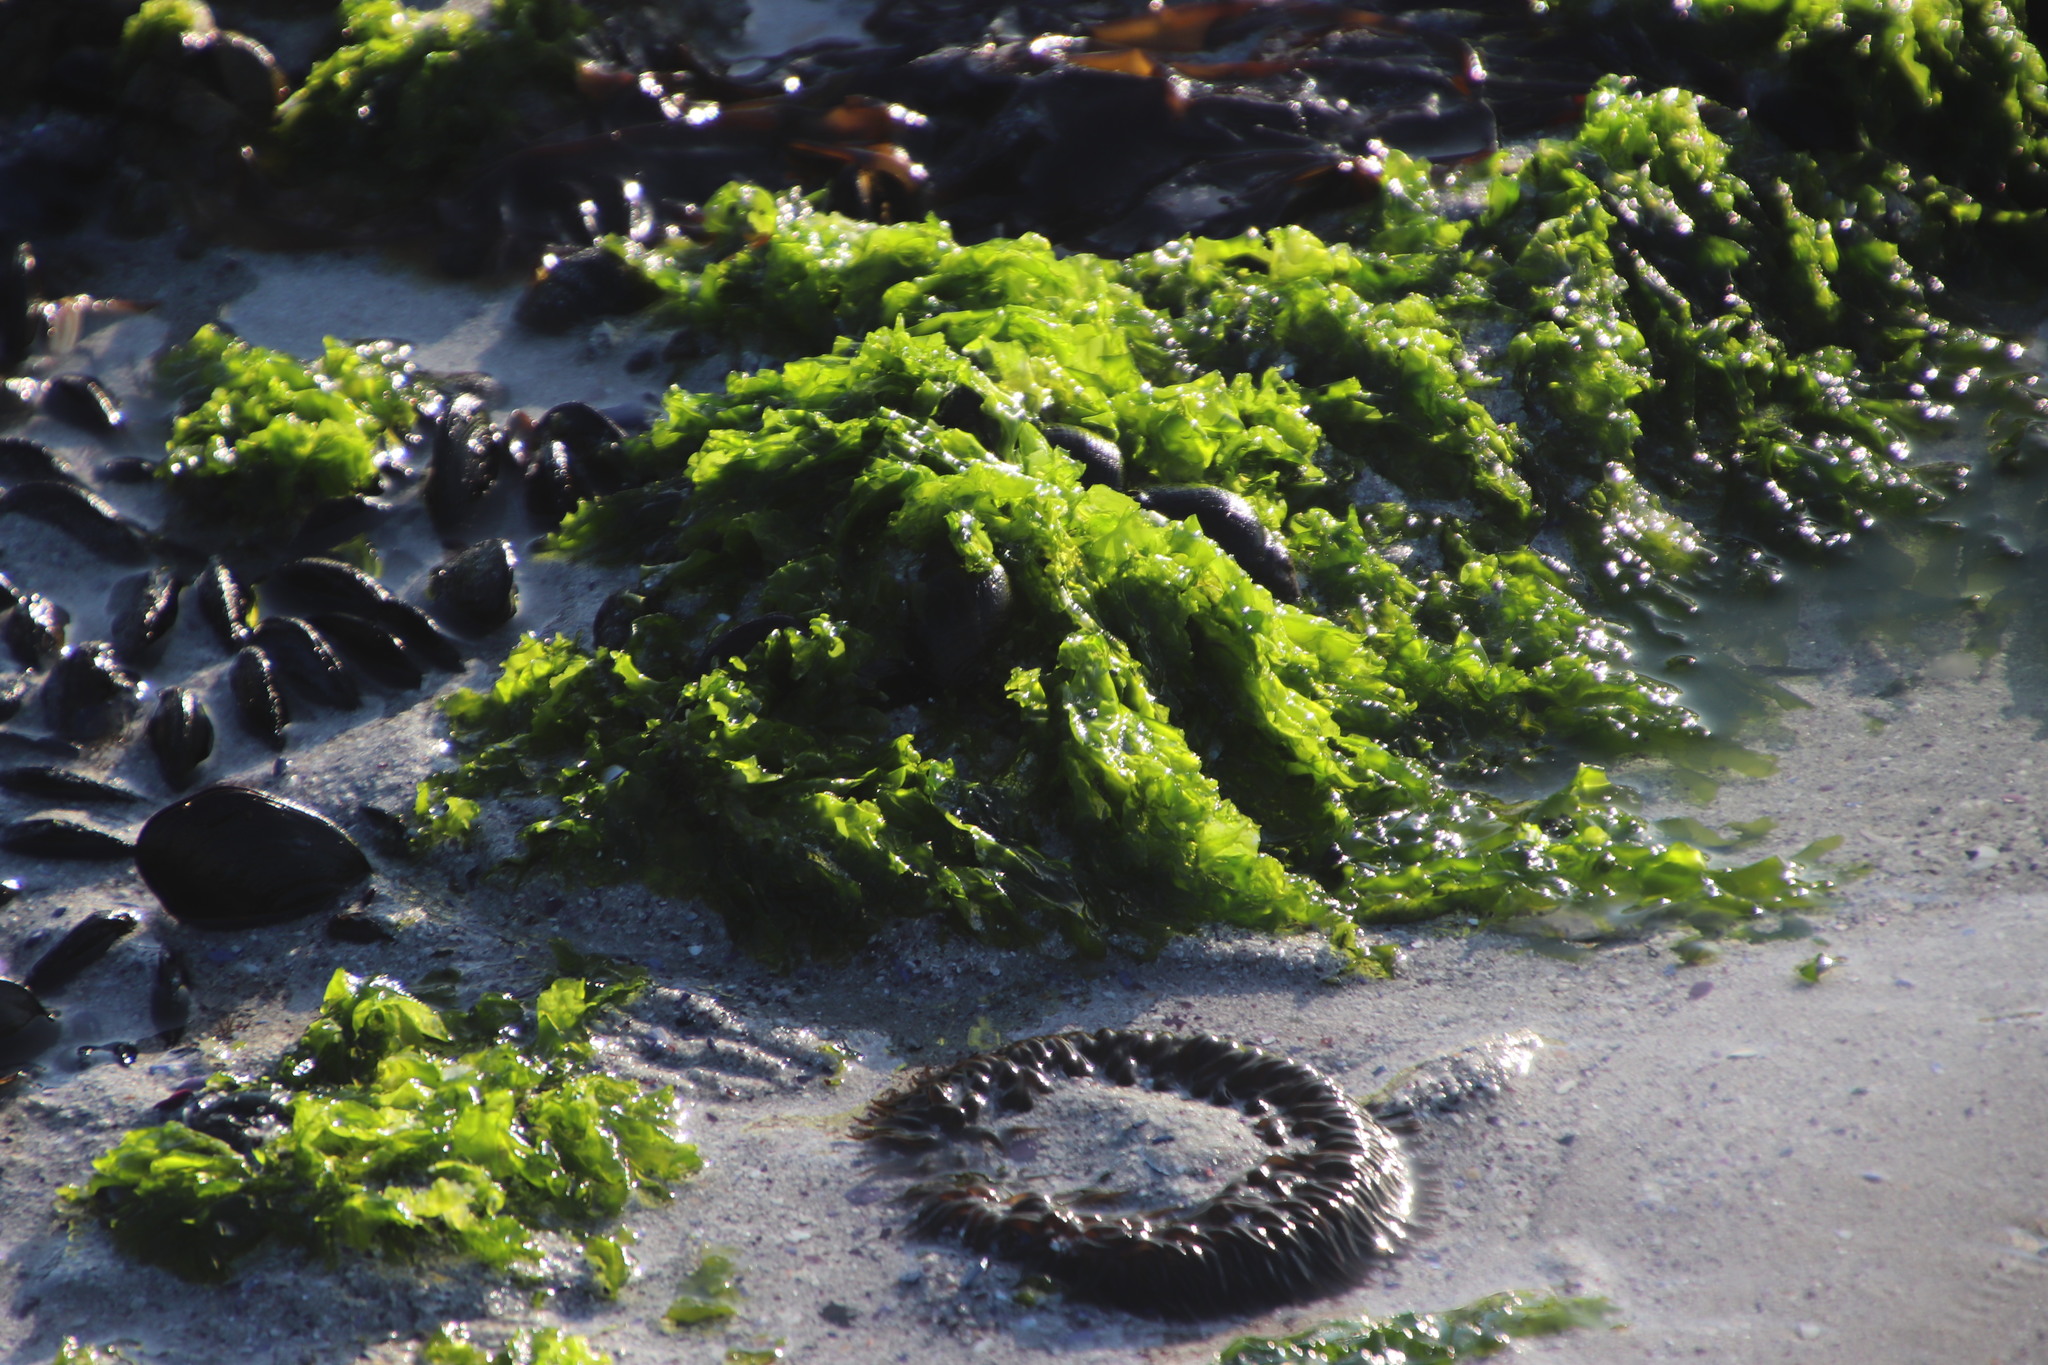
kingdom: Plantae
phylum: Chlorophyta
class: Ulvophyceae
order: Ulvales
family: Ulvaceae
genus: Ulva
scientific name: Ulva rigida
